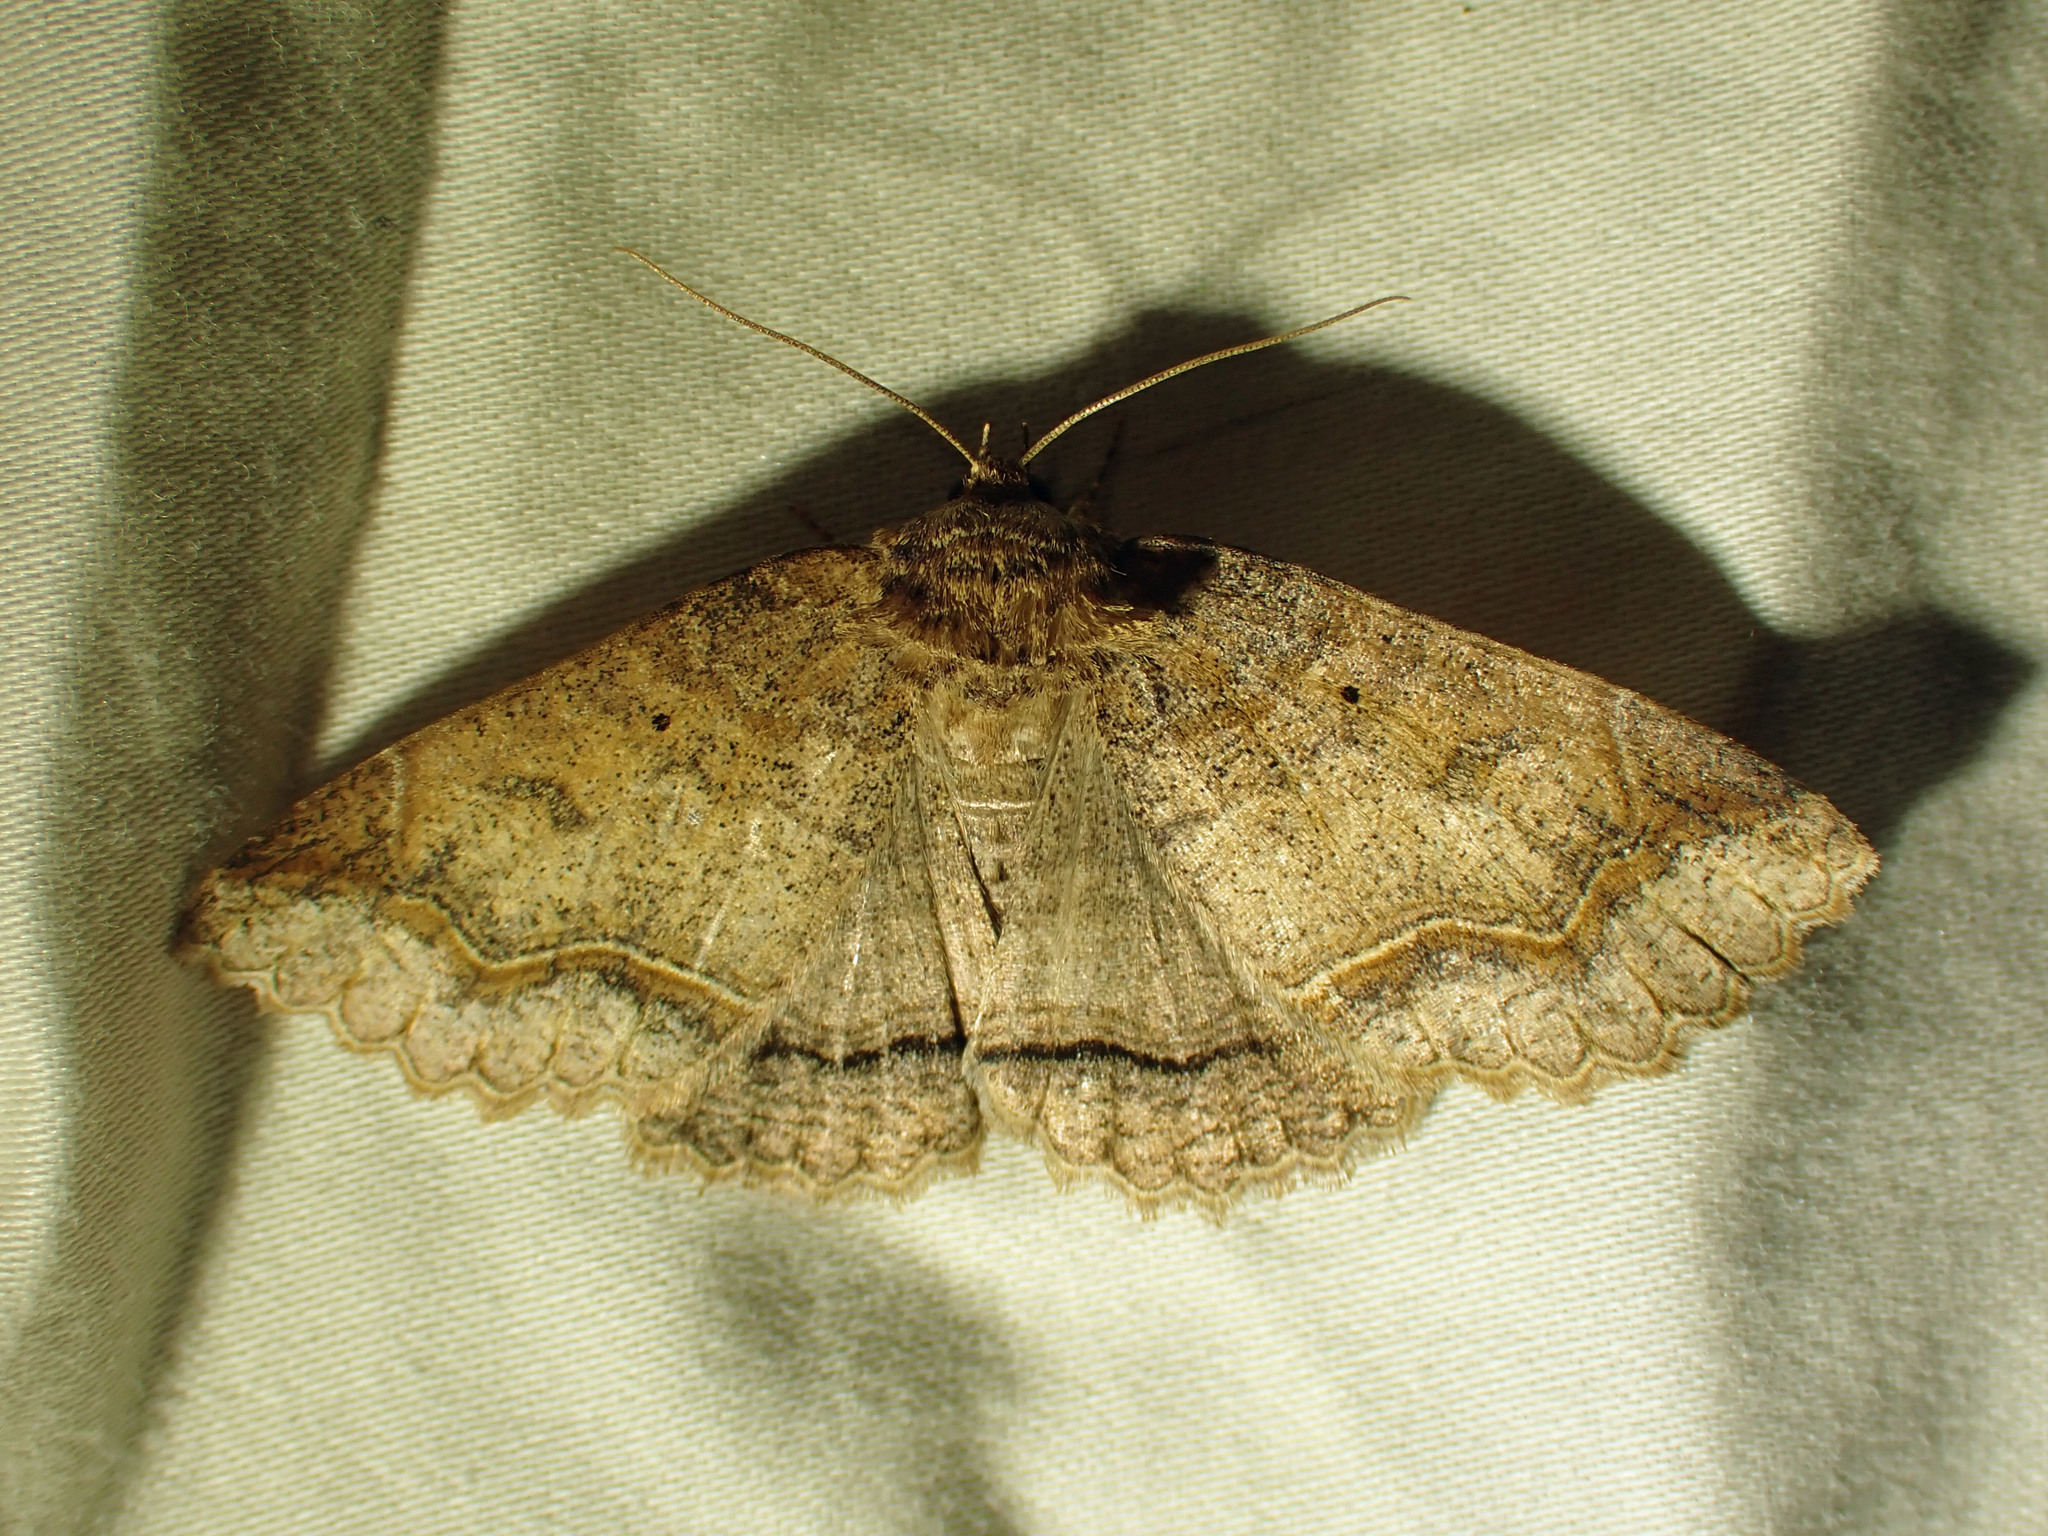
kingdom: Animalia
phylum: Arthropoda
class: Insecta
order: Lepidoptera
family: Erebidae
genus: Zale
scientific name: Zale unilineata
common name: One-lined zale moth
